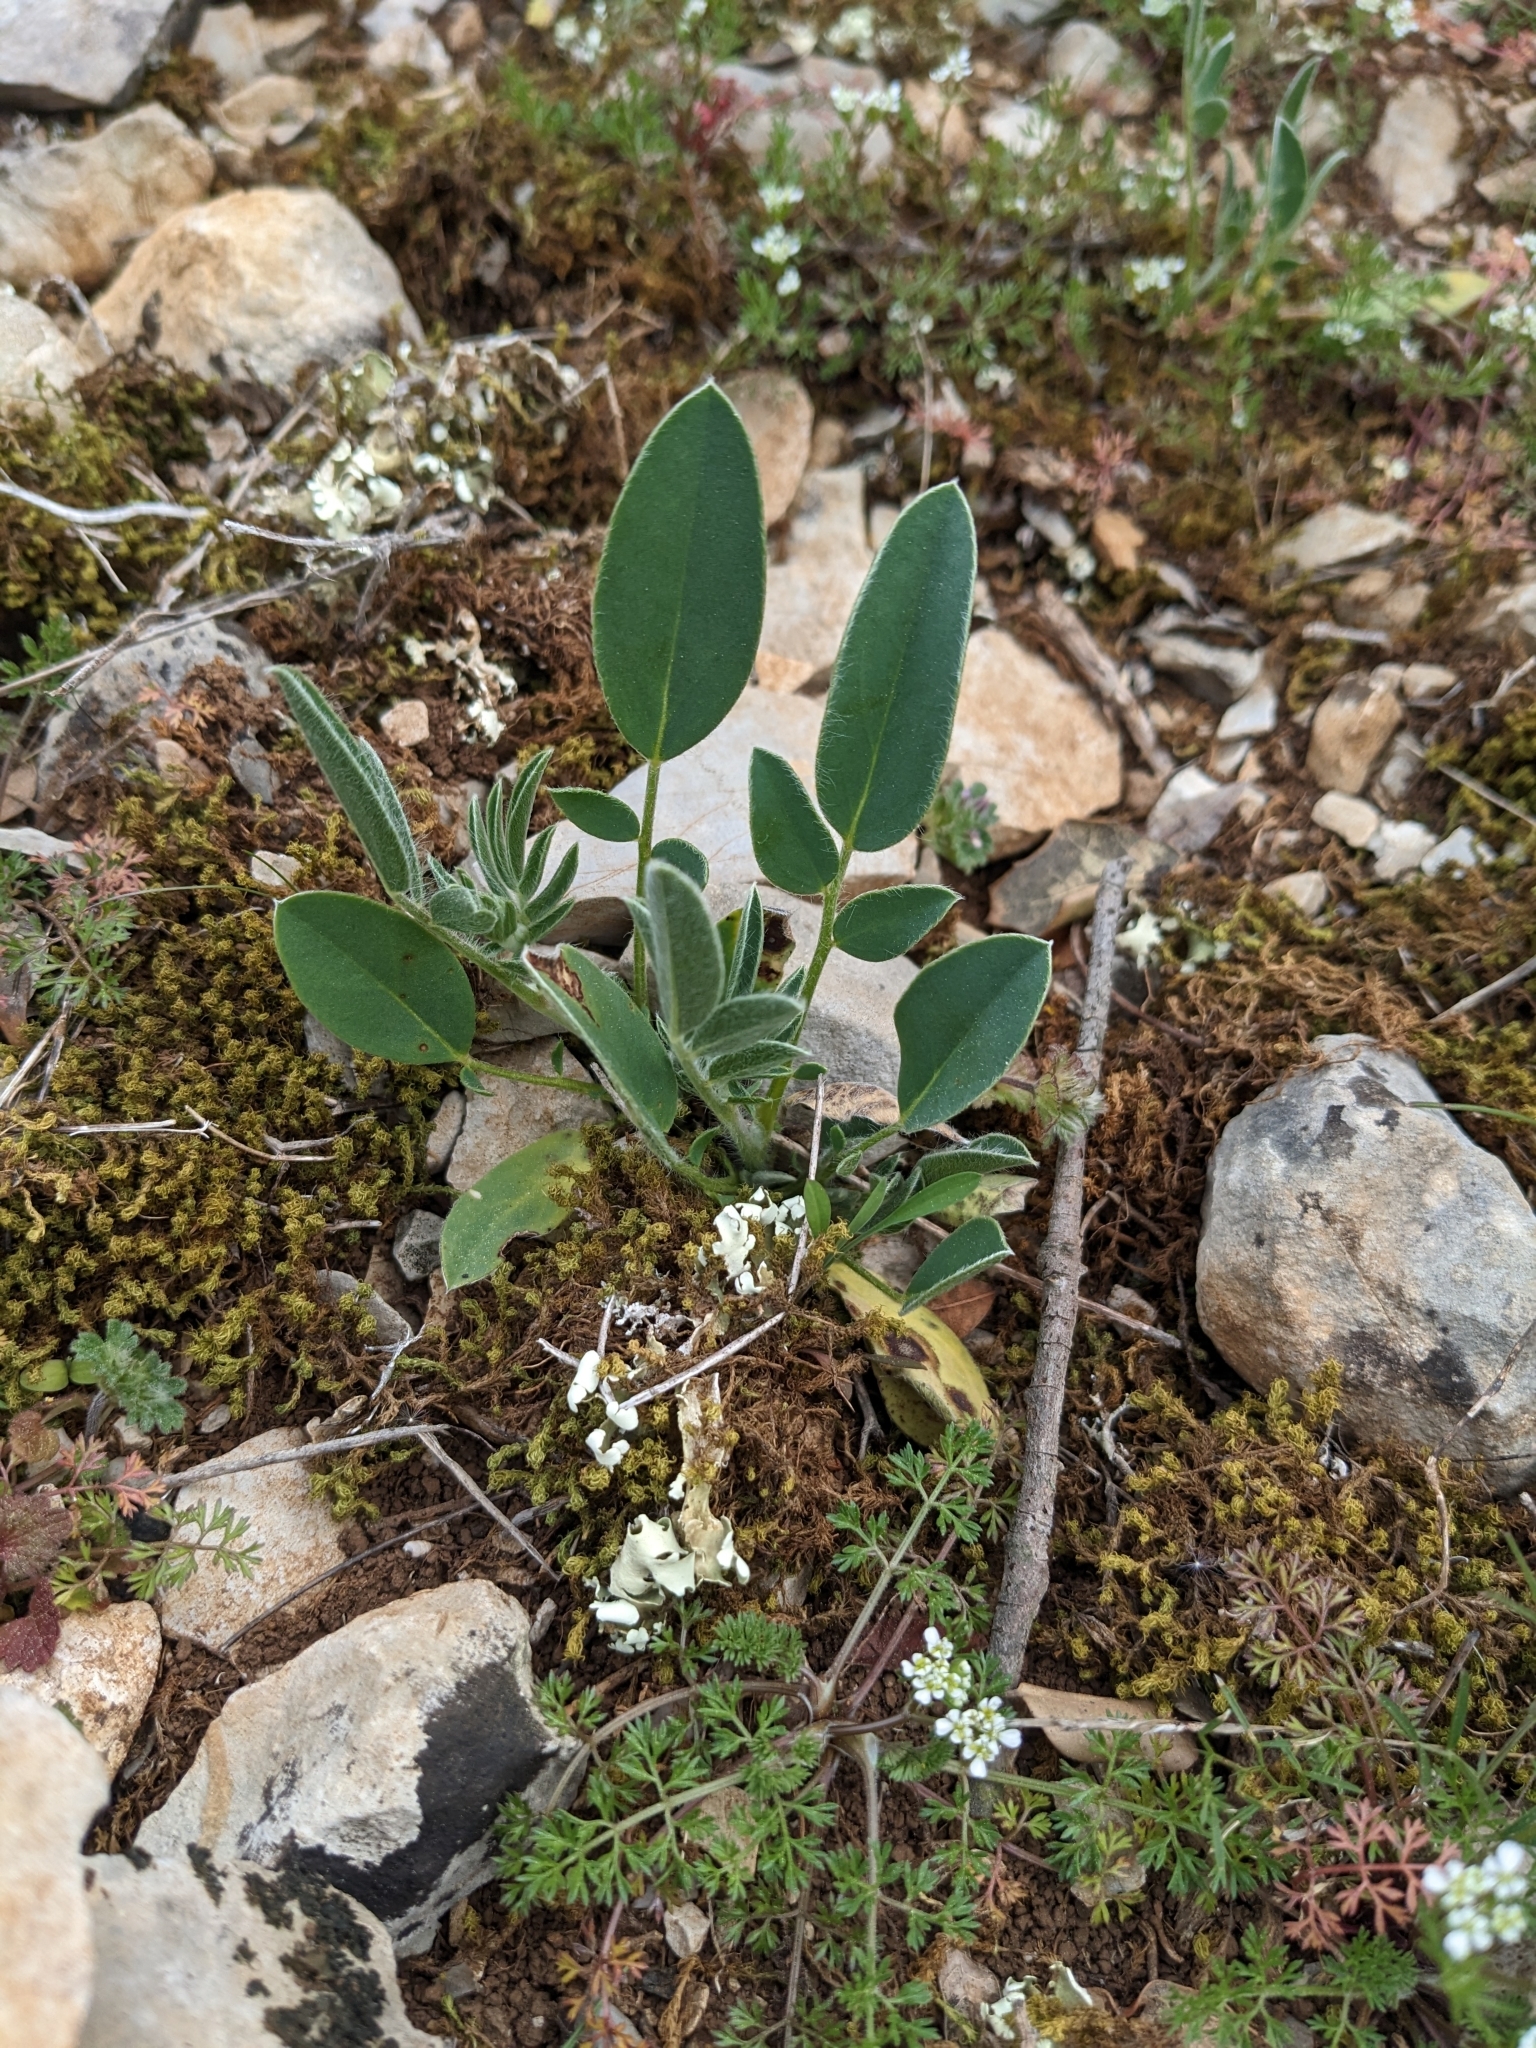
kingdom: Plantae
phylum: Tracheophyta
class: Magnoliopsida
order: Fabales
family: Fabaceae
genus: Anthyllis
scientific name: Anthyllis vulneraria
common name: Kidney vetch
